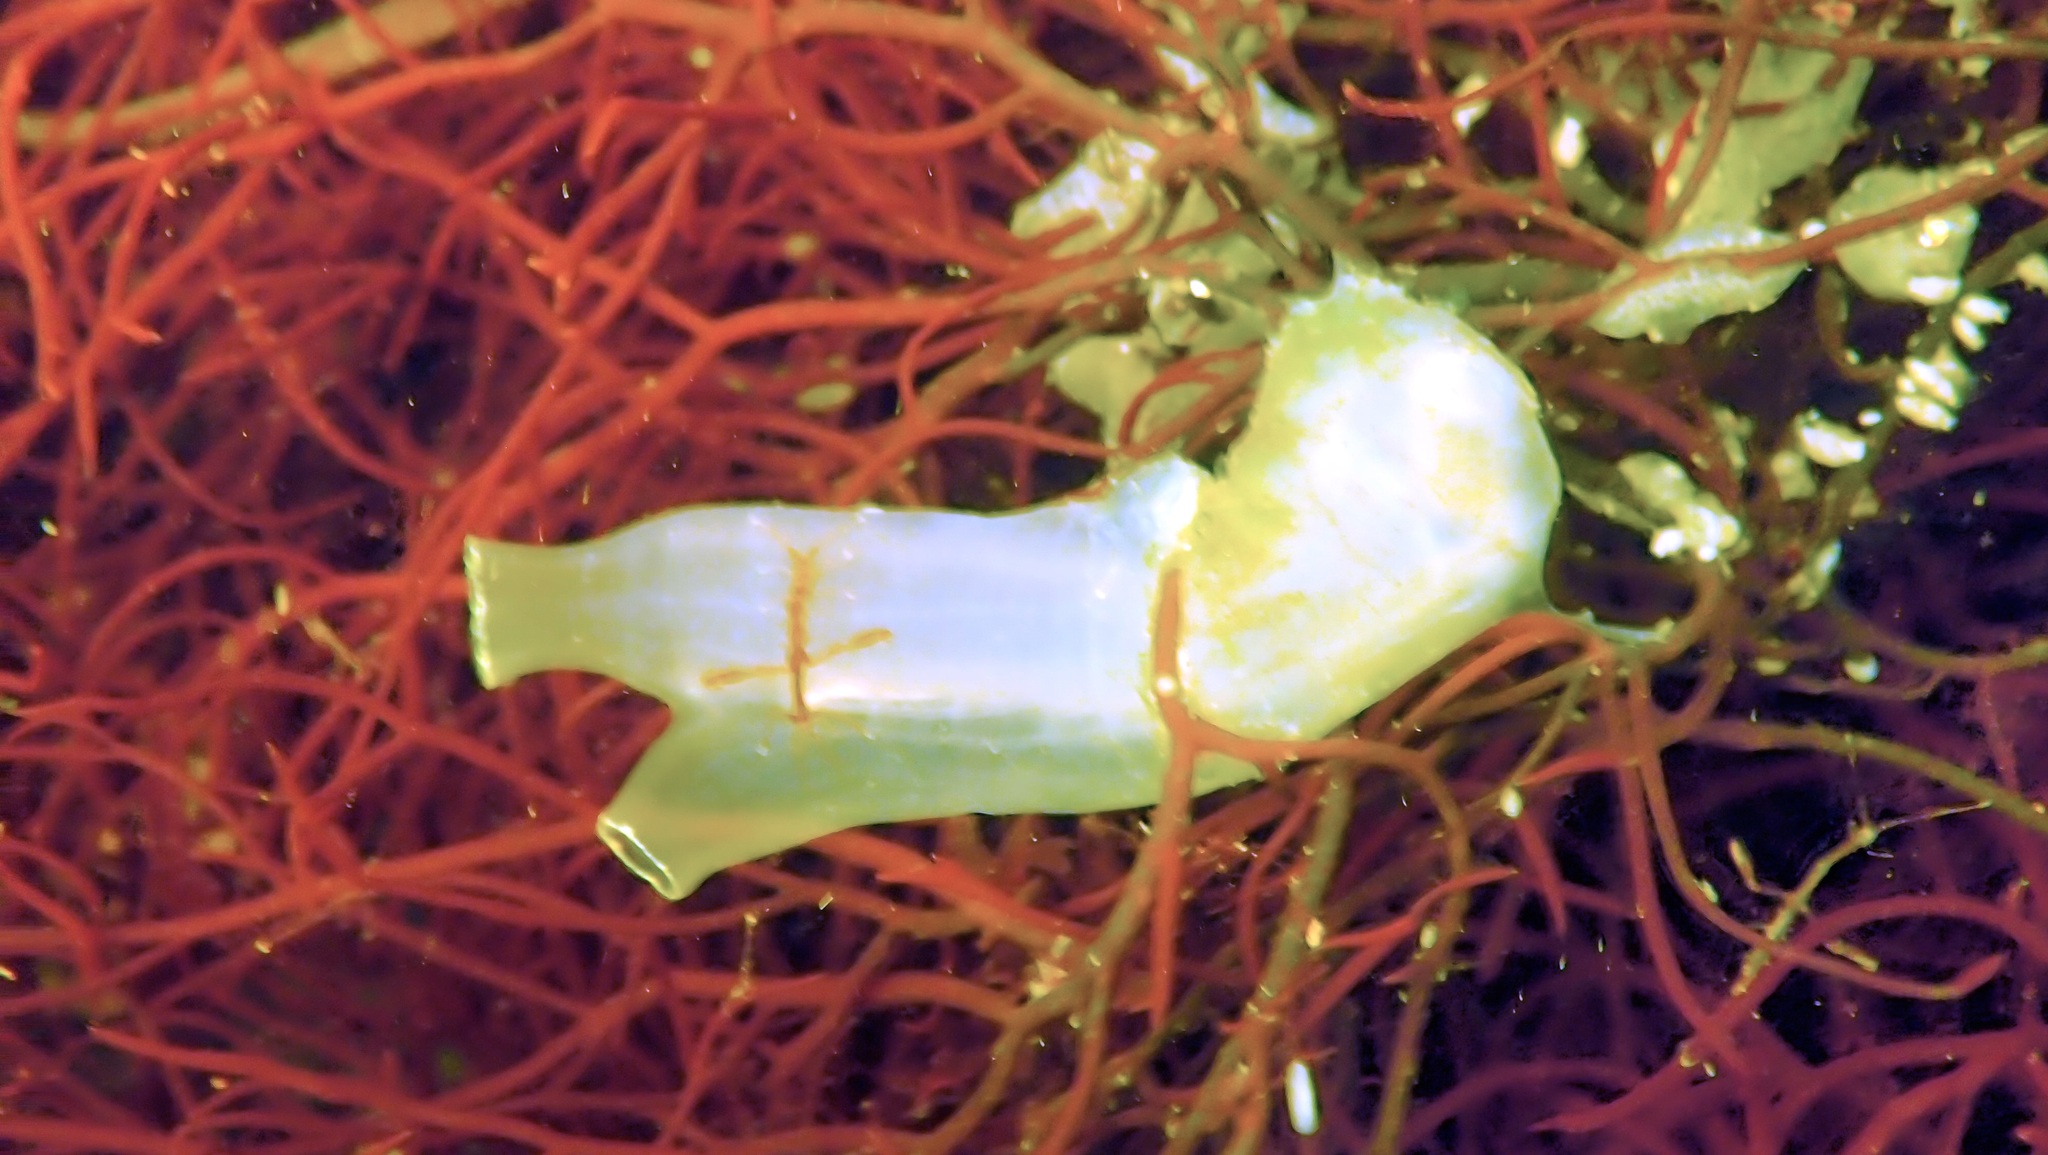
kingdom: Animalia
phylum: Chordata
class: Ascidiacea
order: Phlebobranchia
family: Cionidae
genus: Ciona
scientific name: Ciona intestinalis
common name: Vase tunicate
